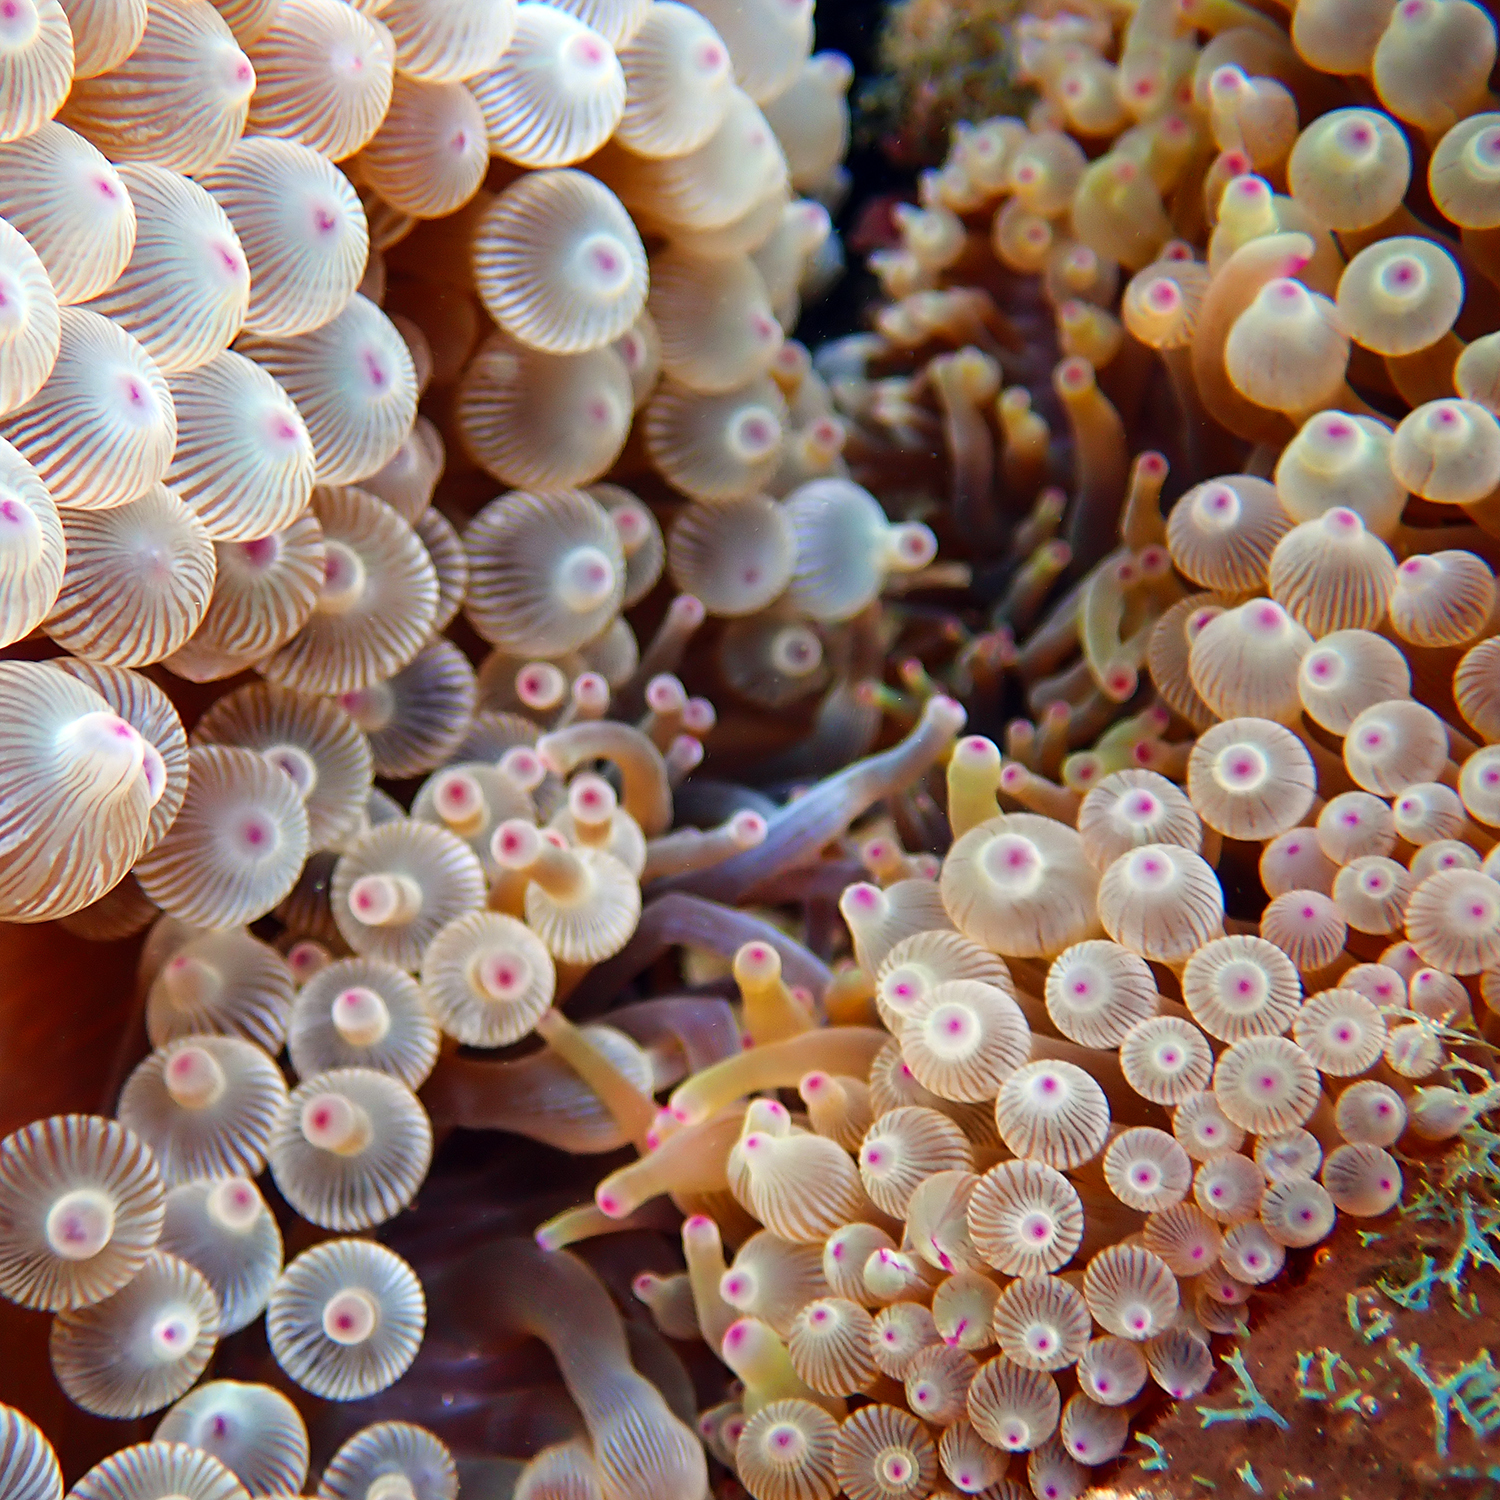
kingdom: Animalia
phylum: Cnidaria
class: Anthozoa
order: Actiniaria
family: Actiniidae
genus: Entacmaea
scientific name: Entacmaea quadricolor
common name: Bulb tentacle sea anemone
